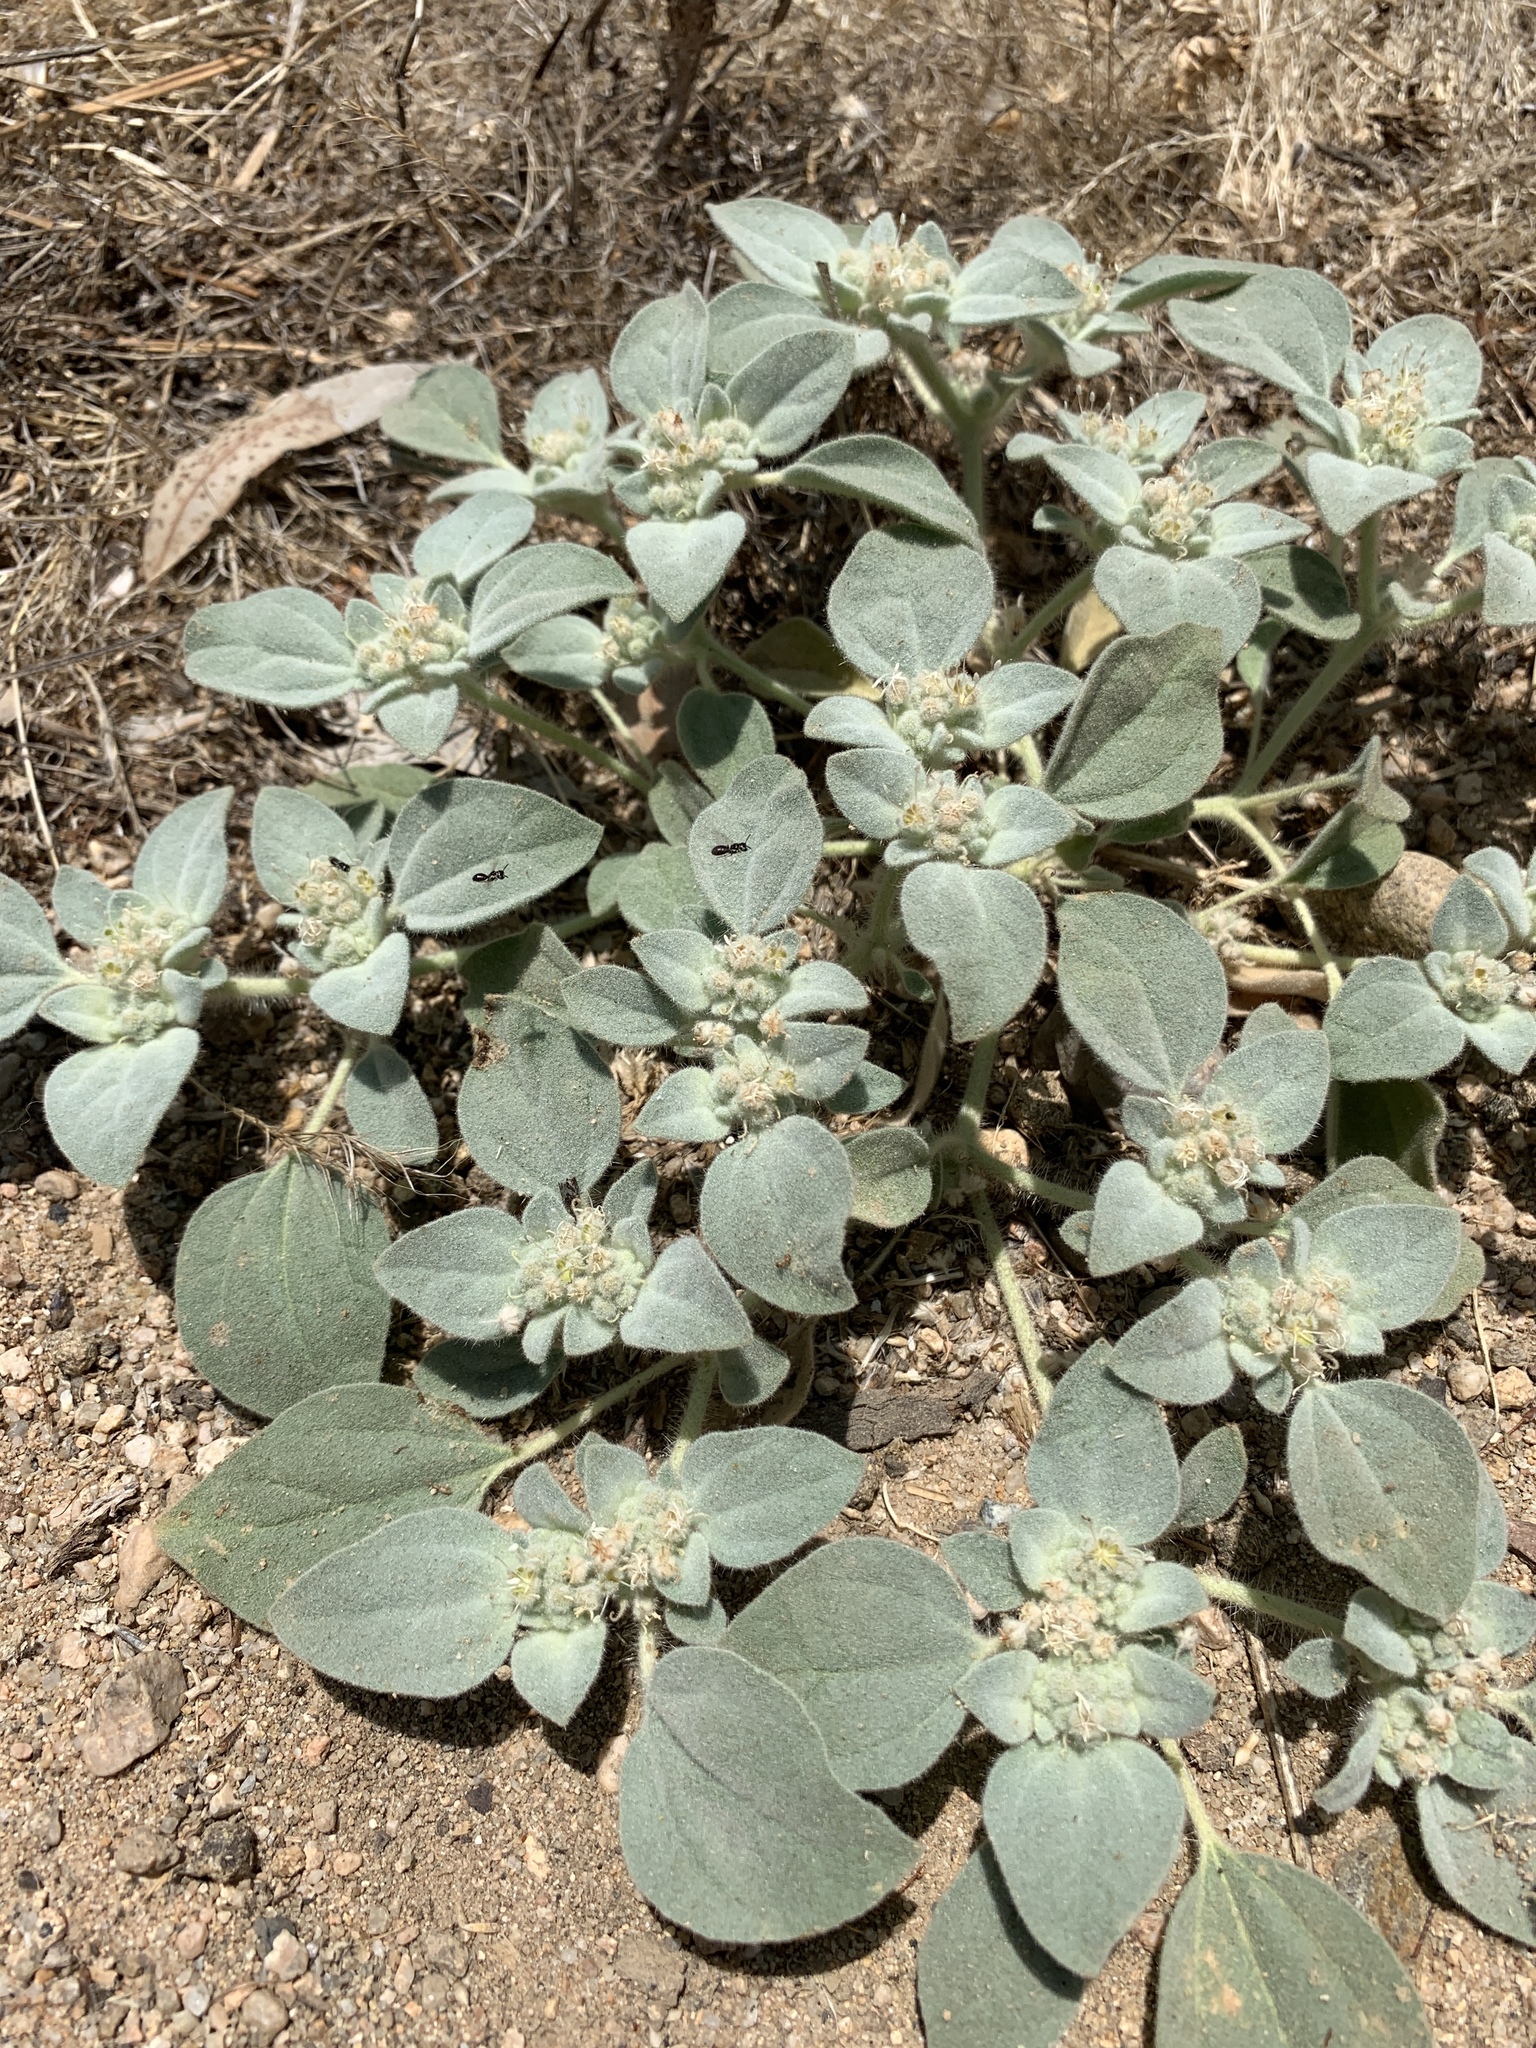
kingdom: Plantae
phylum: Tracheophyta
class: Magnoliopsida
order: Malpighiales
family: Euphorbiaceae
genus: Croton
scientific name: Croton setiger
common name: Dove weed
